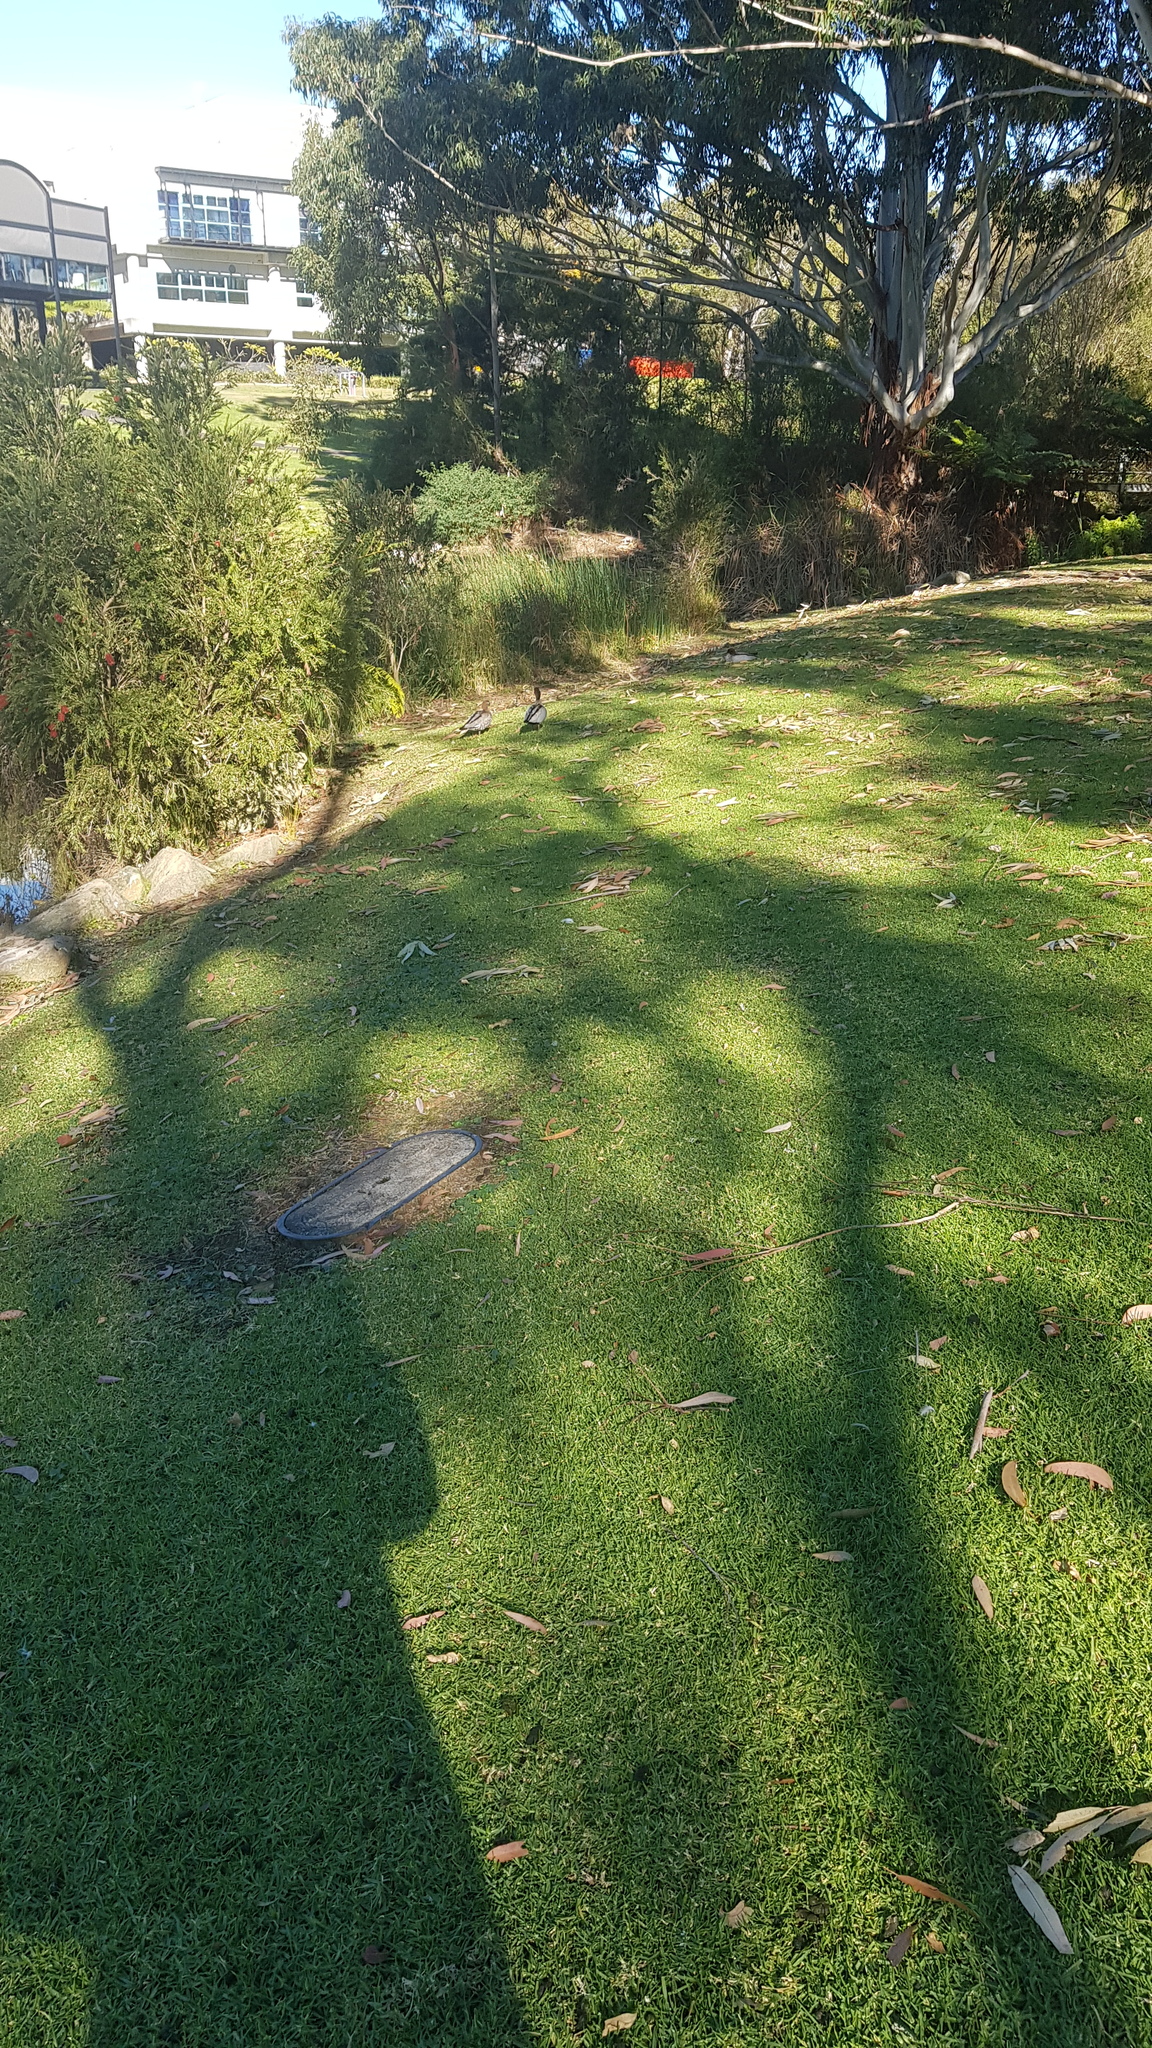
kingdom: Animalia
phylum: Chordata
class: Aves
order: Anseriformes
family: Anatidae
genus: Chenonetta
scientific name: Chenonetta jubata
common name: Maned duck
